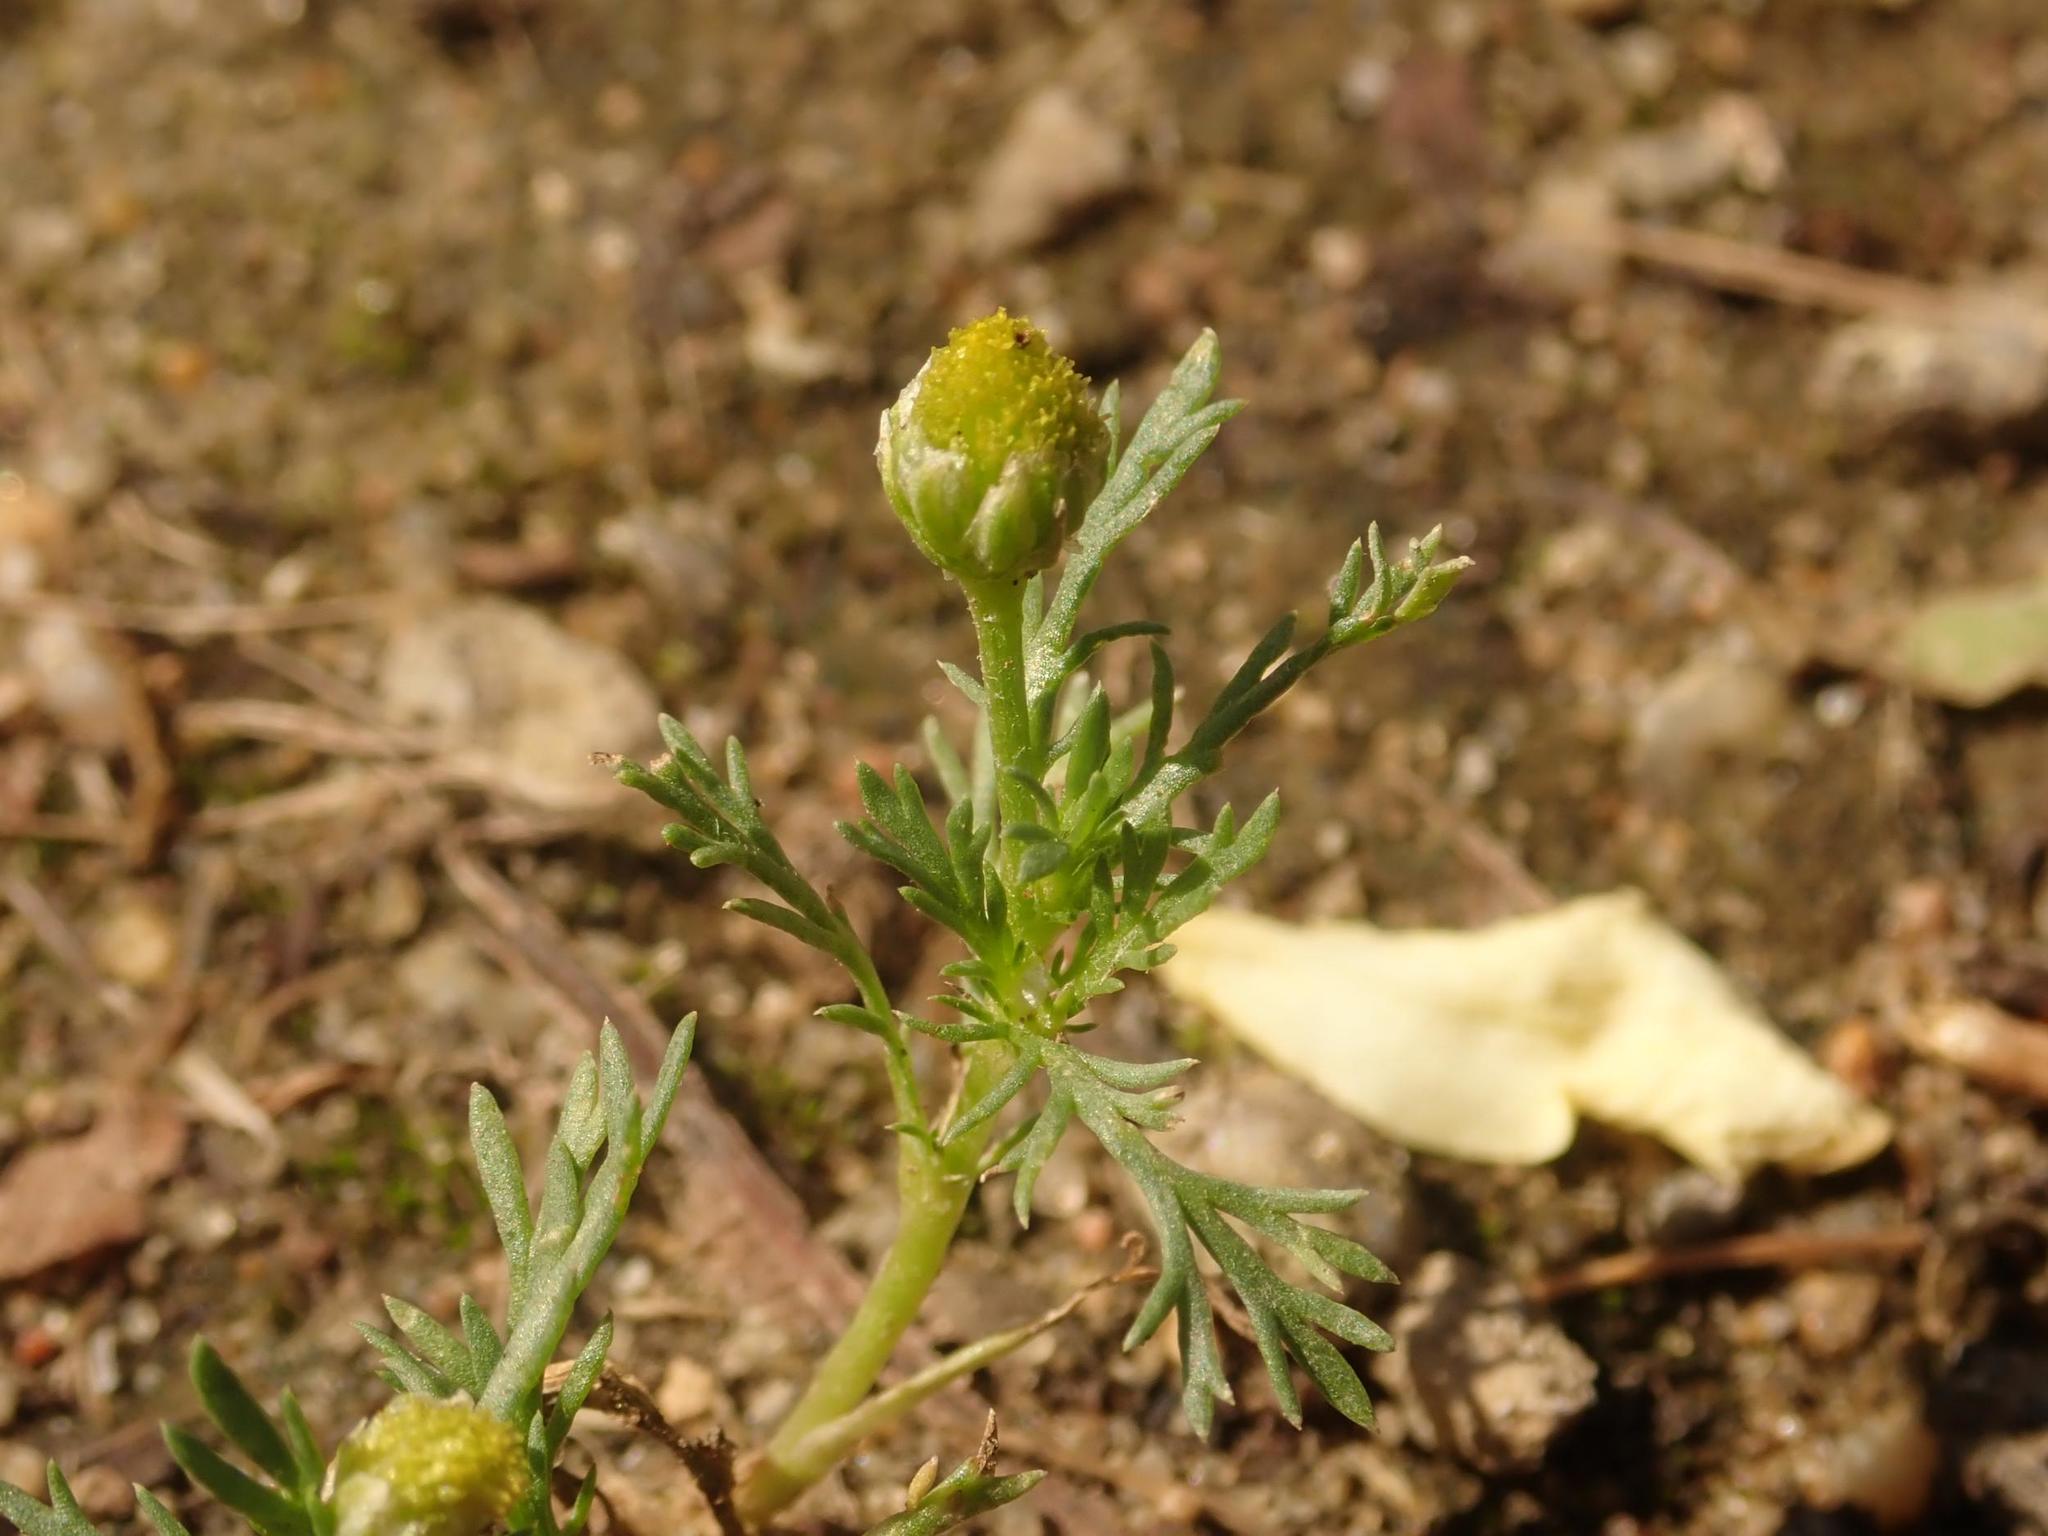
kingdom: Plantae
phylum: Tracheophyta
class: Magnoliopsida
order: Asterales
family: Asteraceae
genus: Matricaria
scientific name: Matricaria discoidea
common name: Disc mayweed
